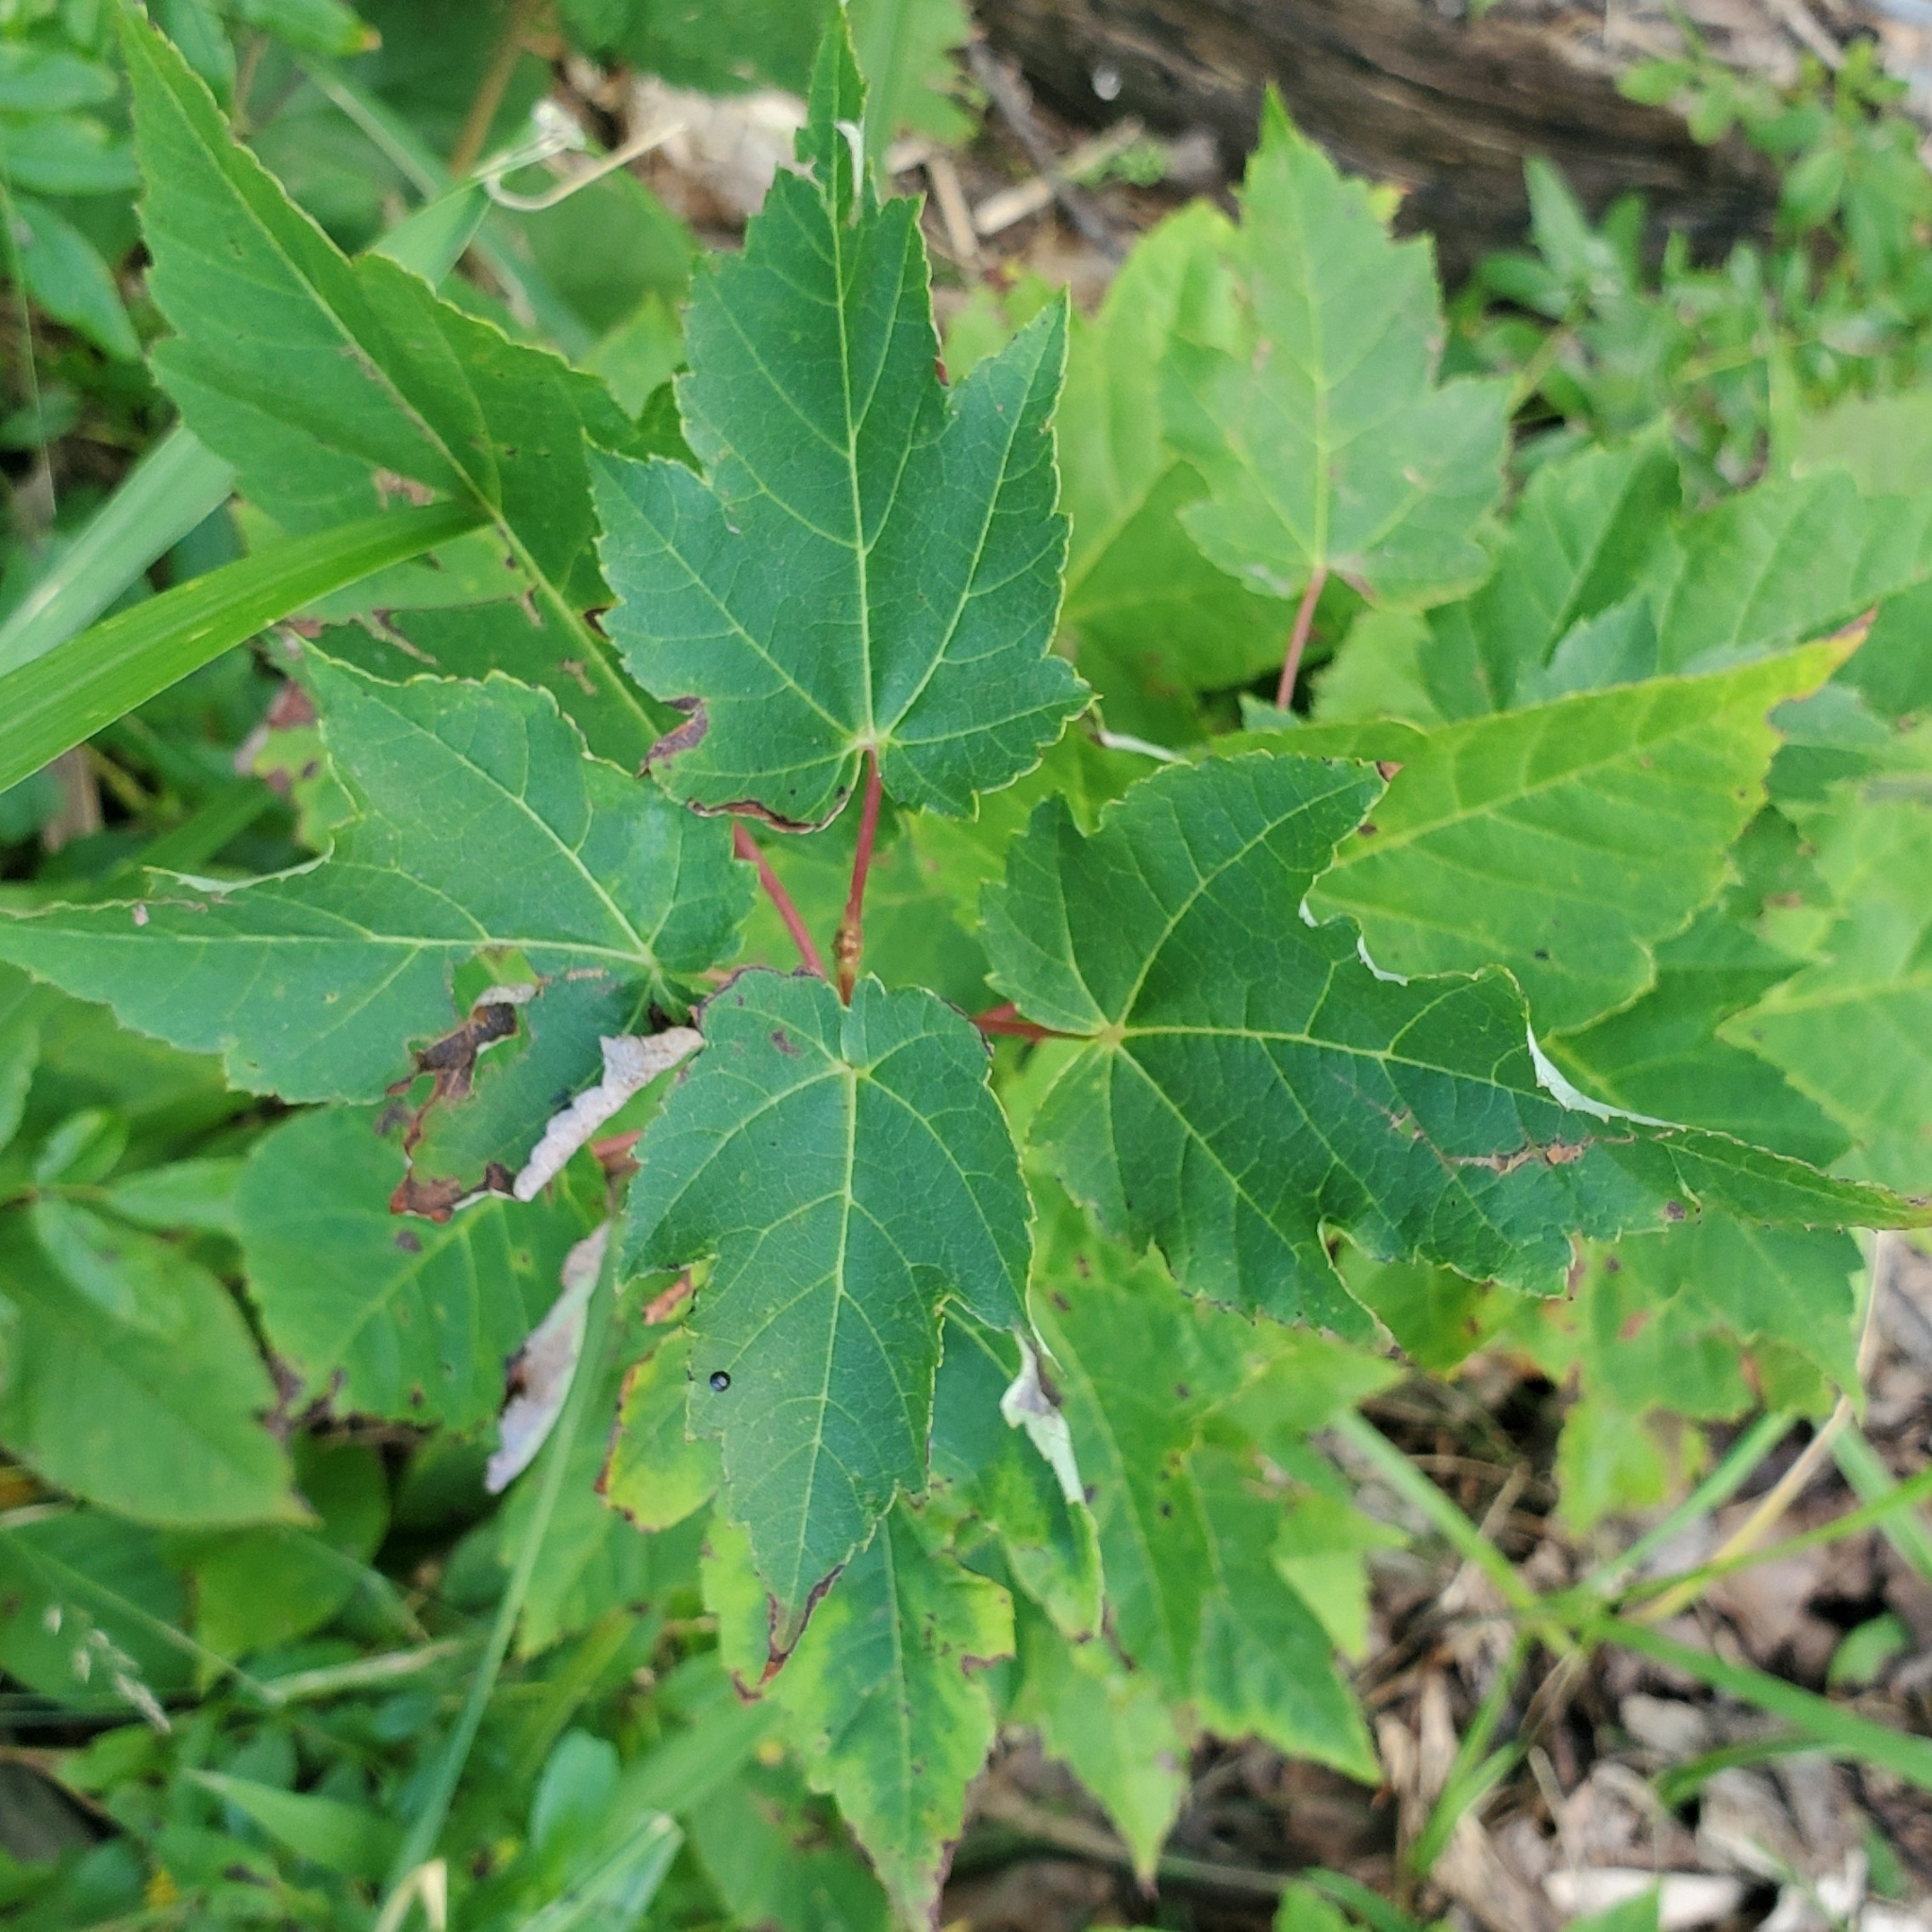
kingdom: Plantae
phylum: Tracheophyta
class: Magnoliopsida
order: Sapindales
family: Sapindaceae
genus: Acer
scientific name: Acer rubrum
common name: Red maple
